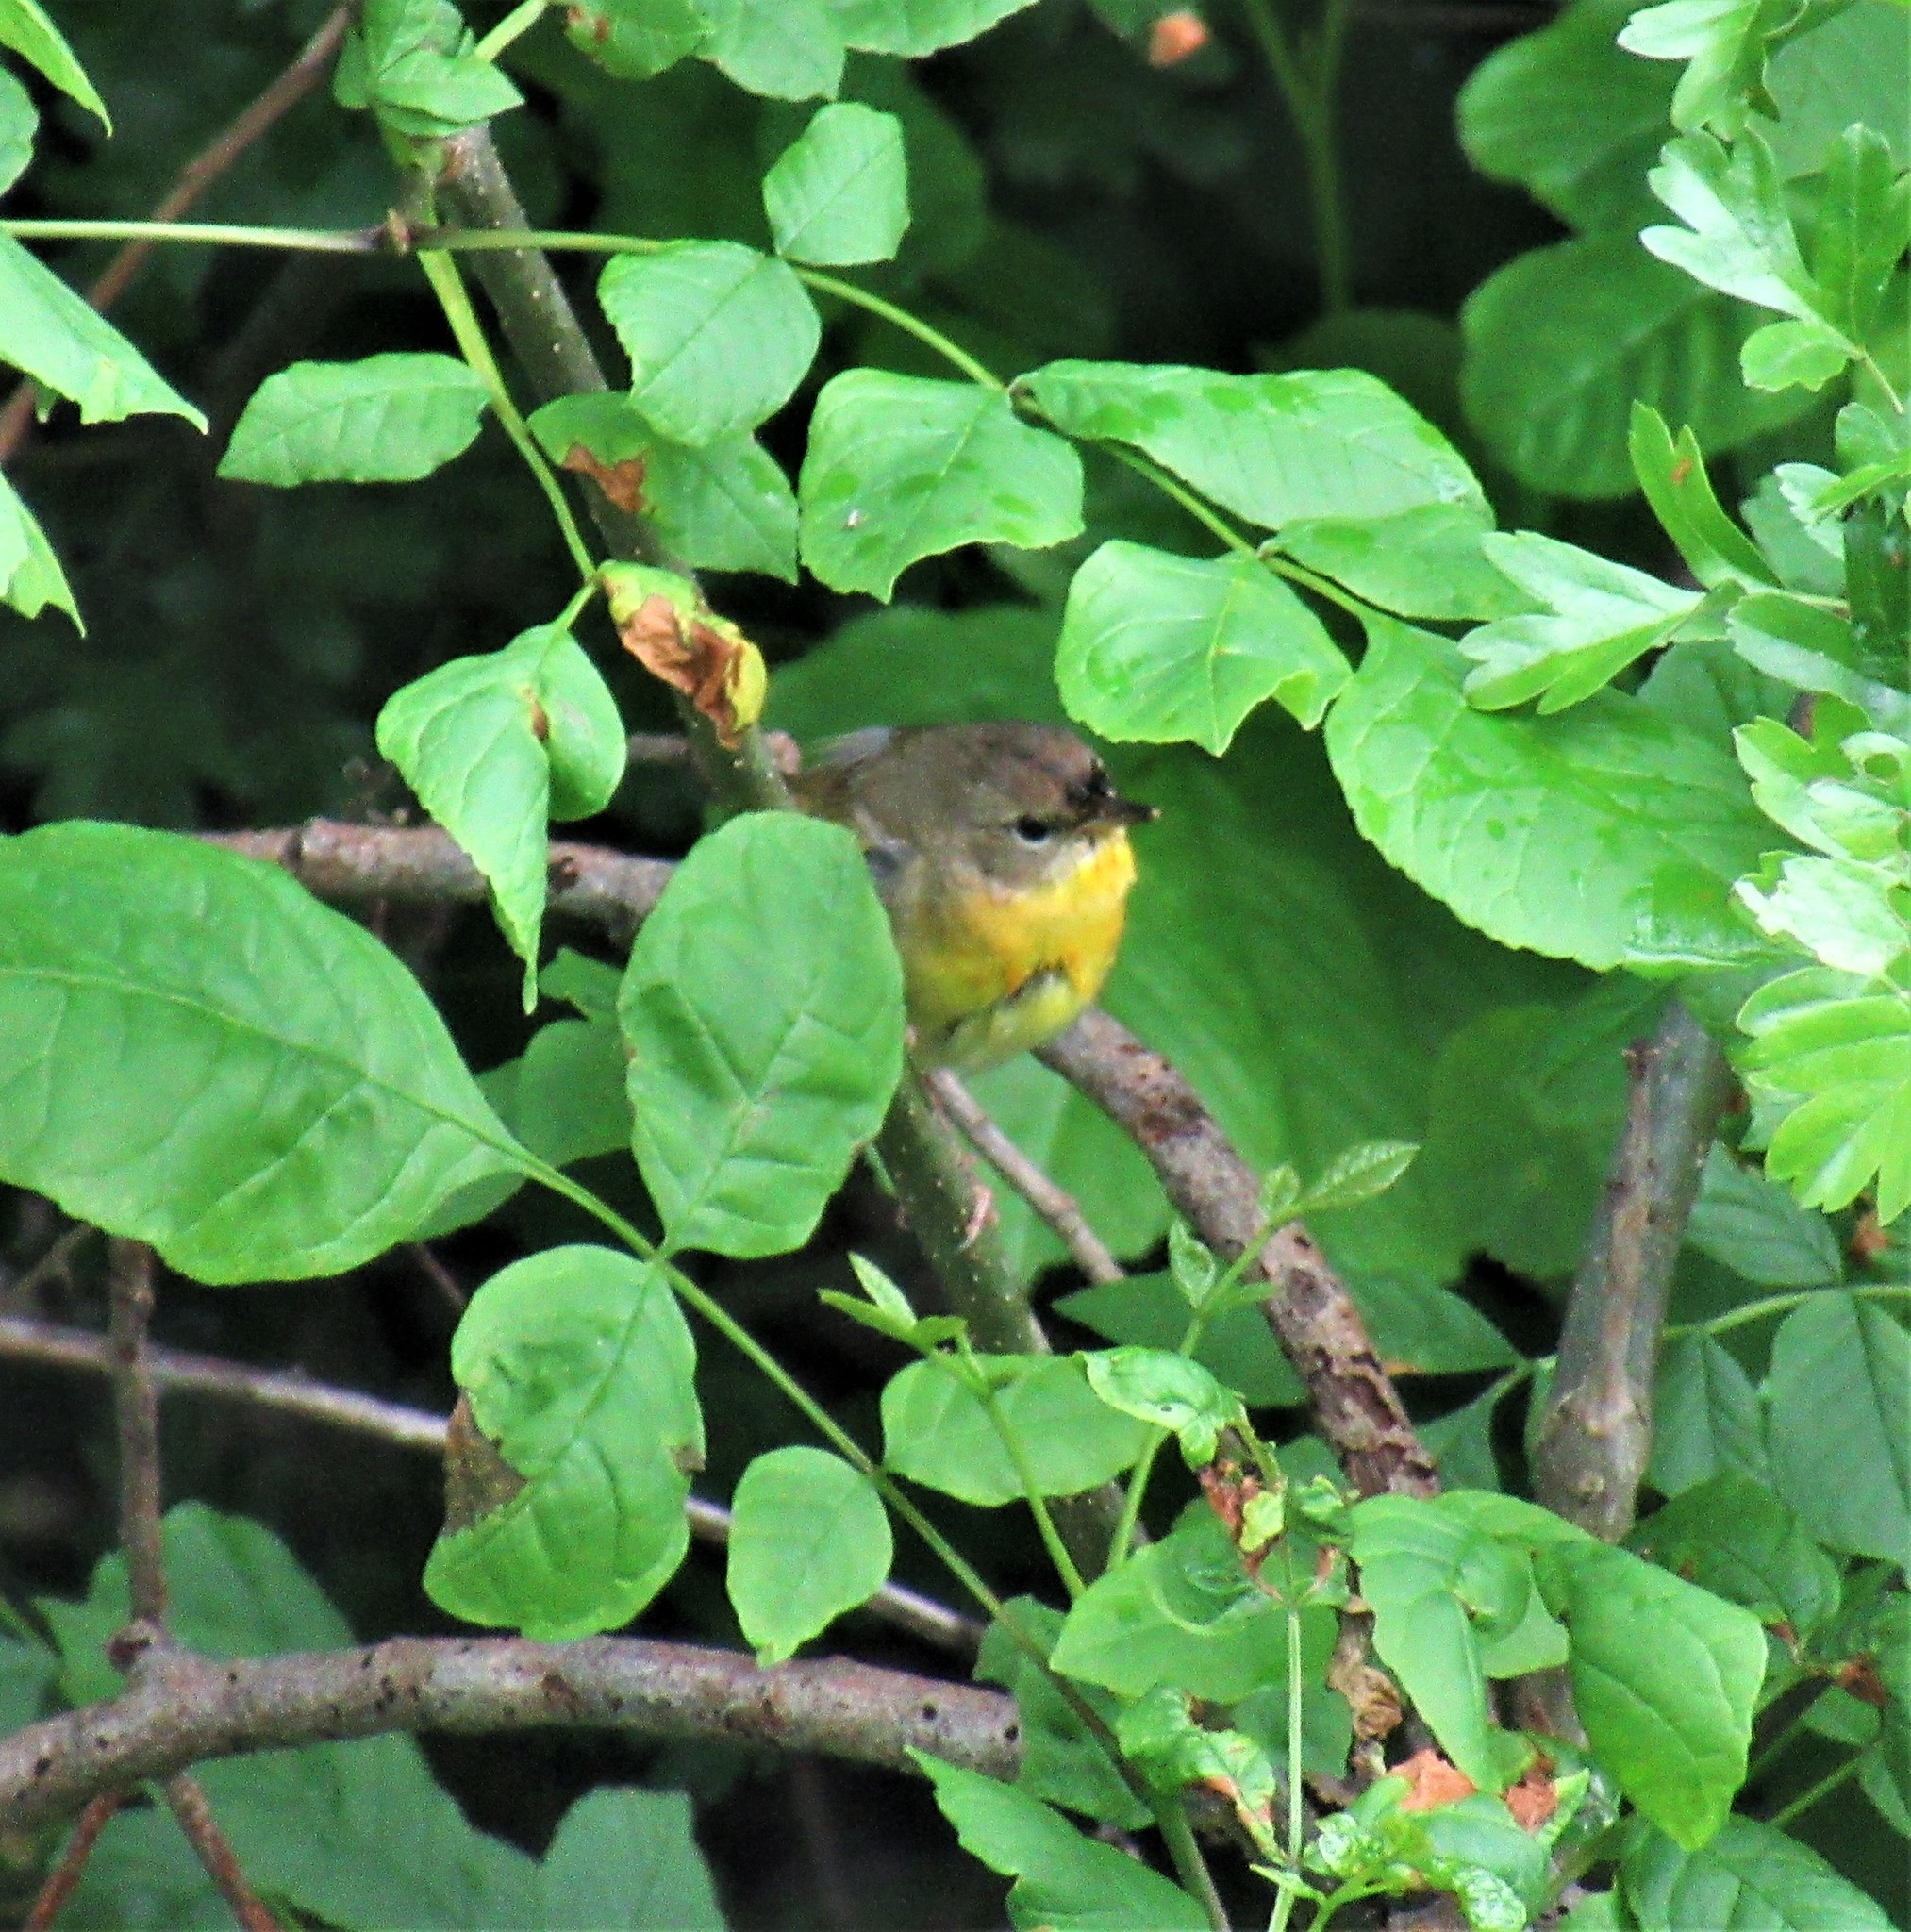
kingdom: Animalia
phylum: Chordata
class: Aves
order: Passeriformes
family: Parulidae
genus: Geothlypis
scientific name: Geothlypis trichas
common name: Common yellowthroat
